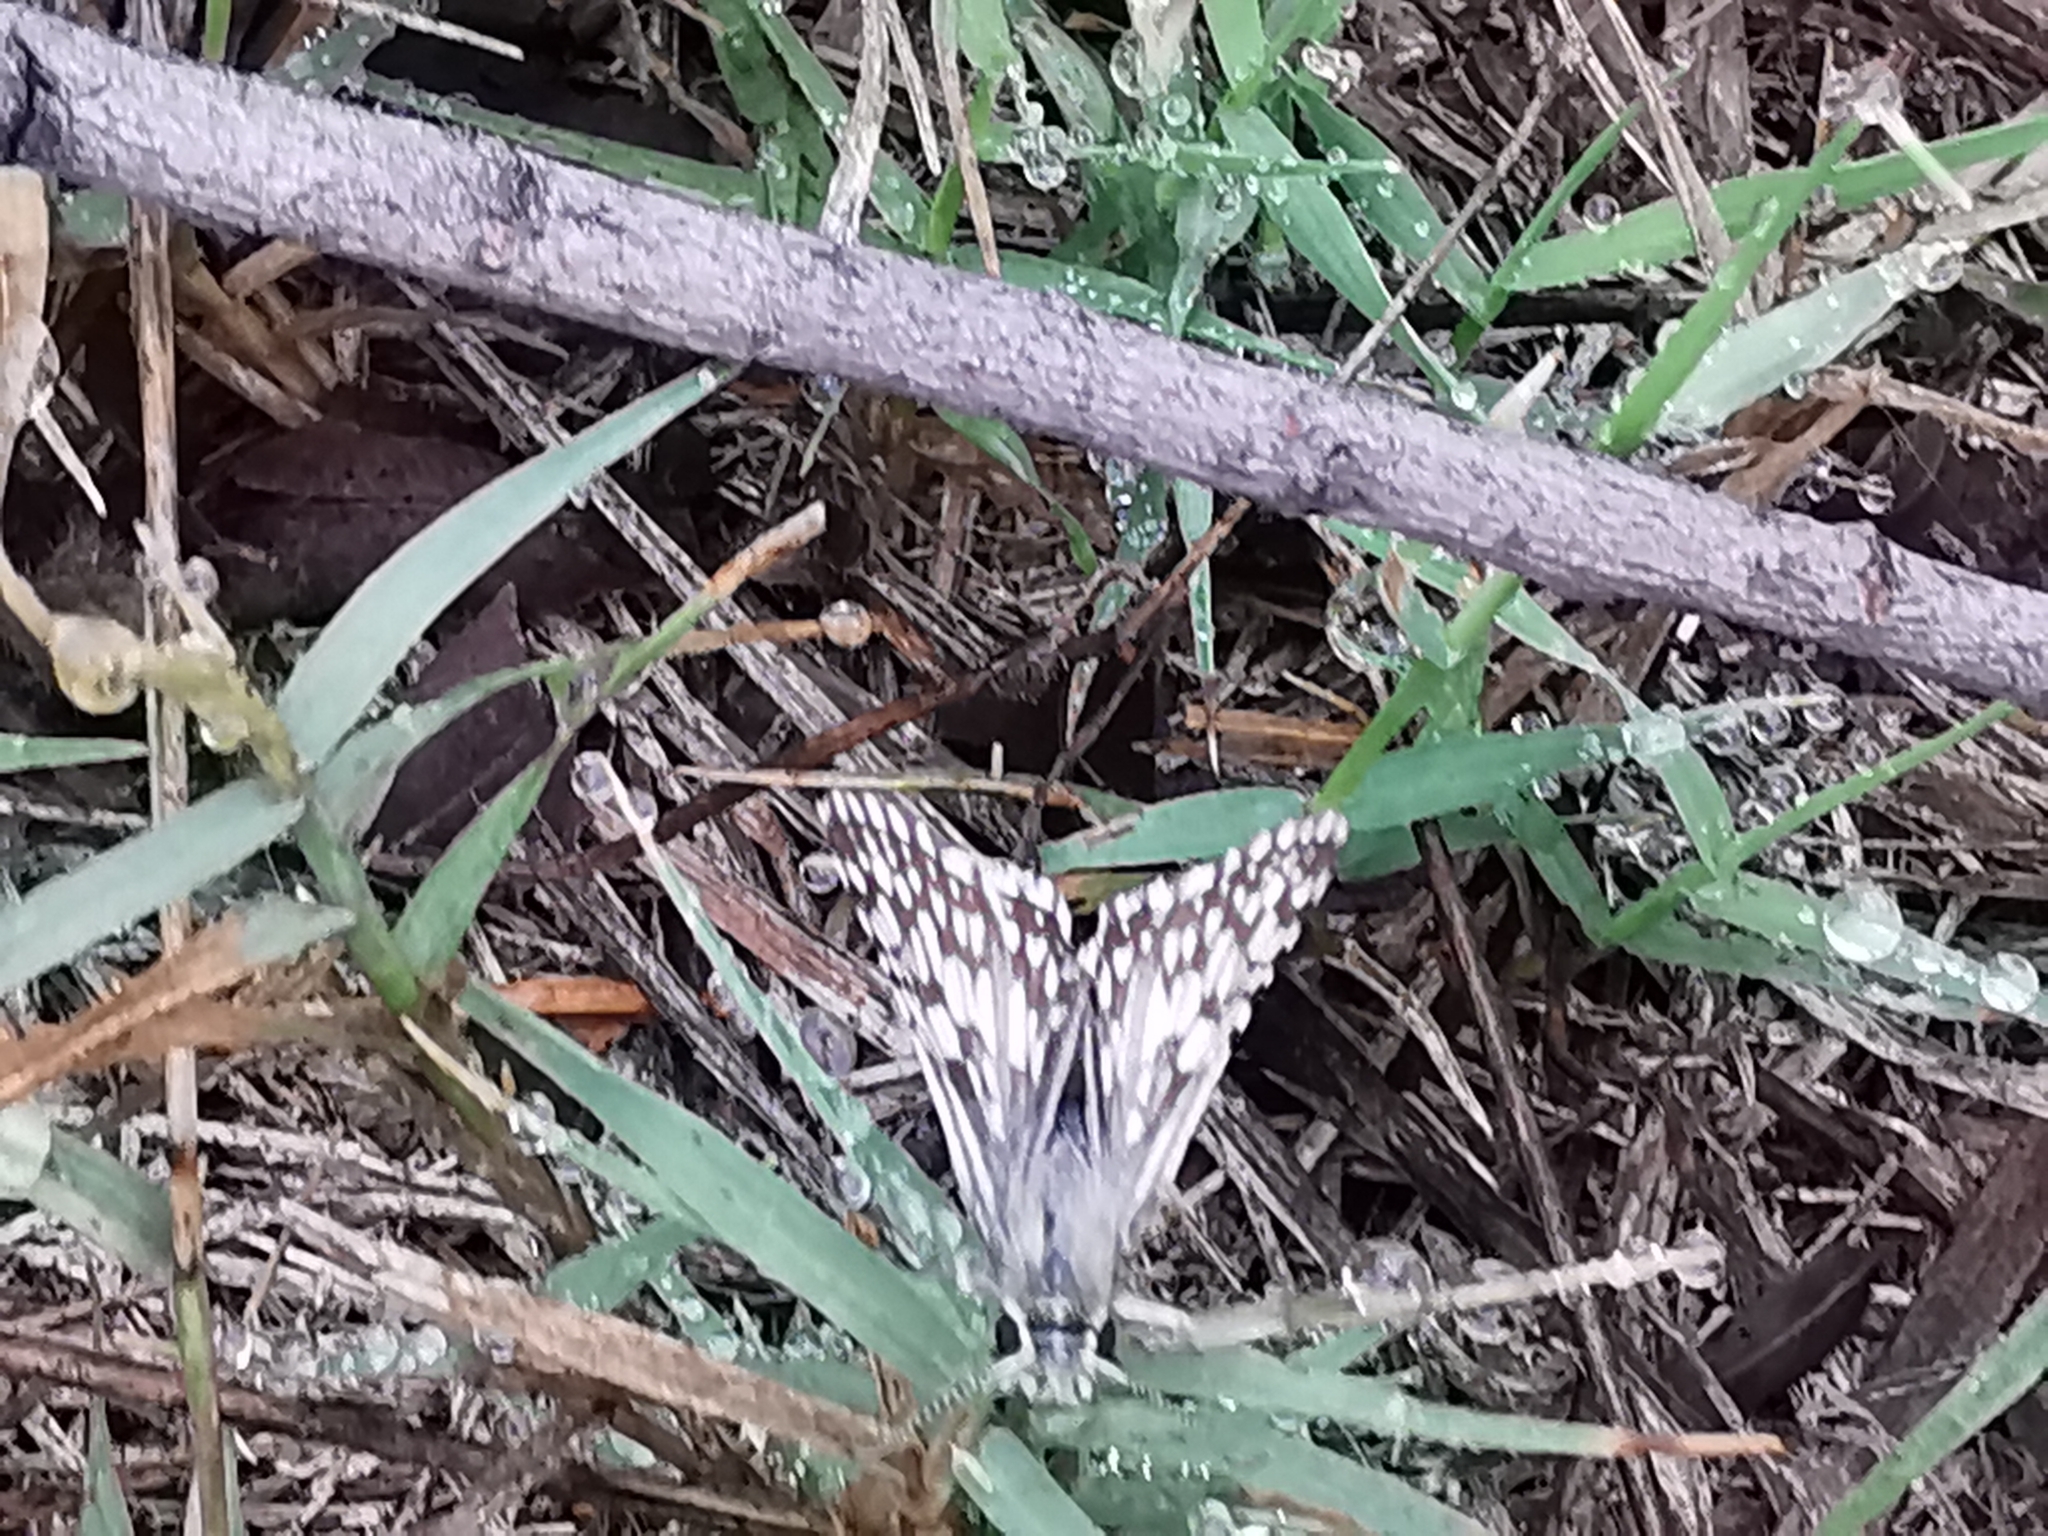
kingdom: Animalia
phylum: Arthropoda
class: Insecta
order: Lepidoptera
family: Hesperiidae
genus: Burnsius
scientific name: Burnsius philetas
